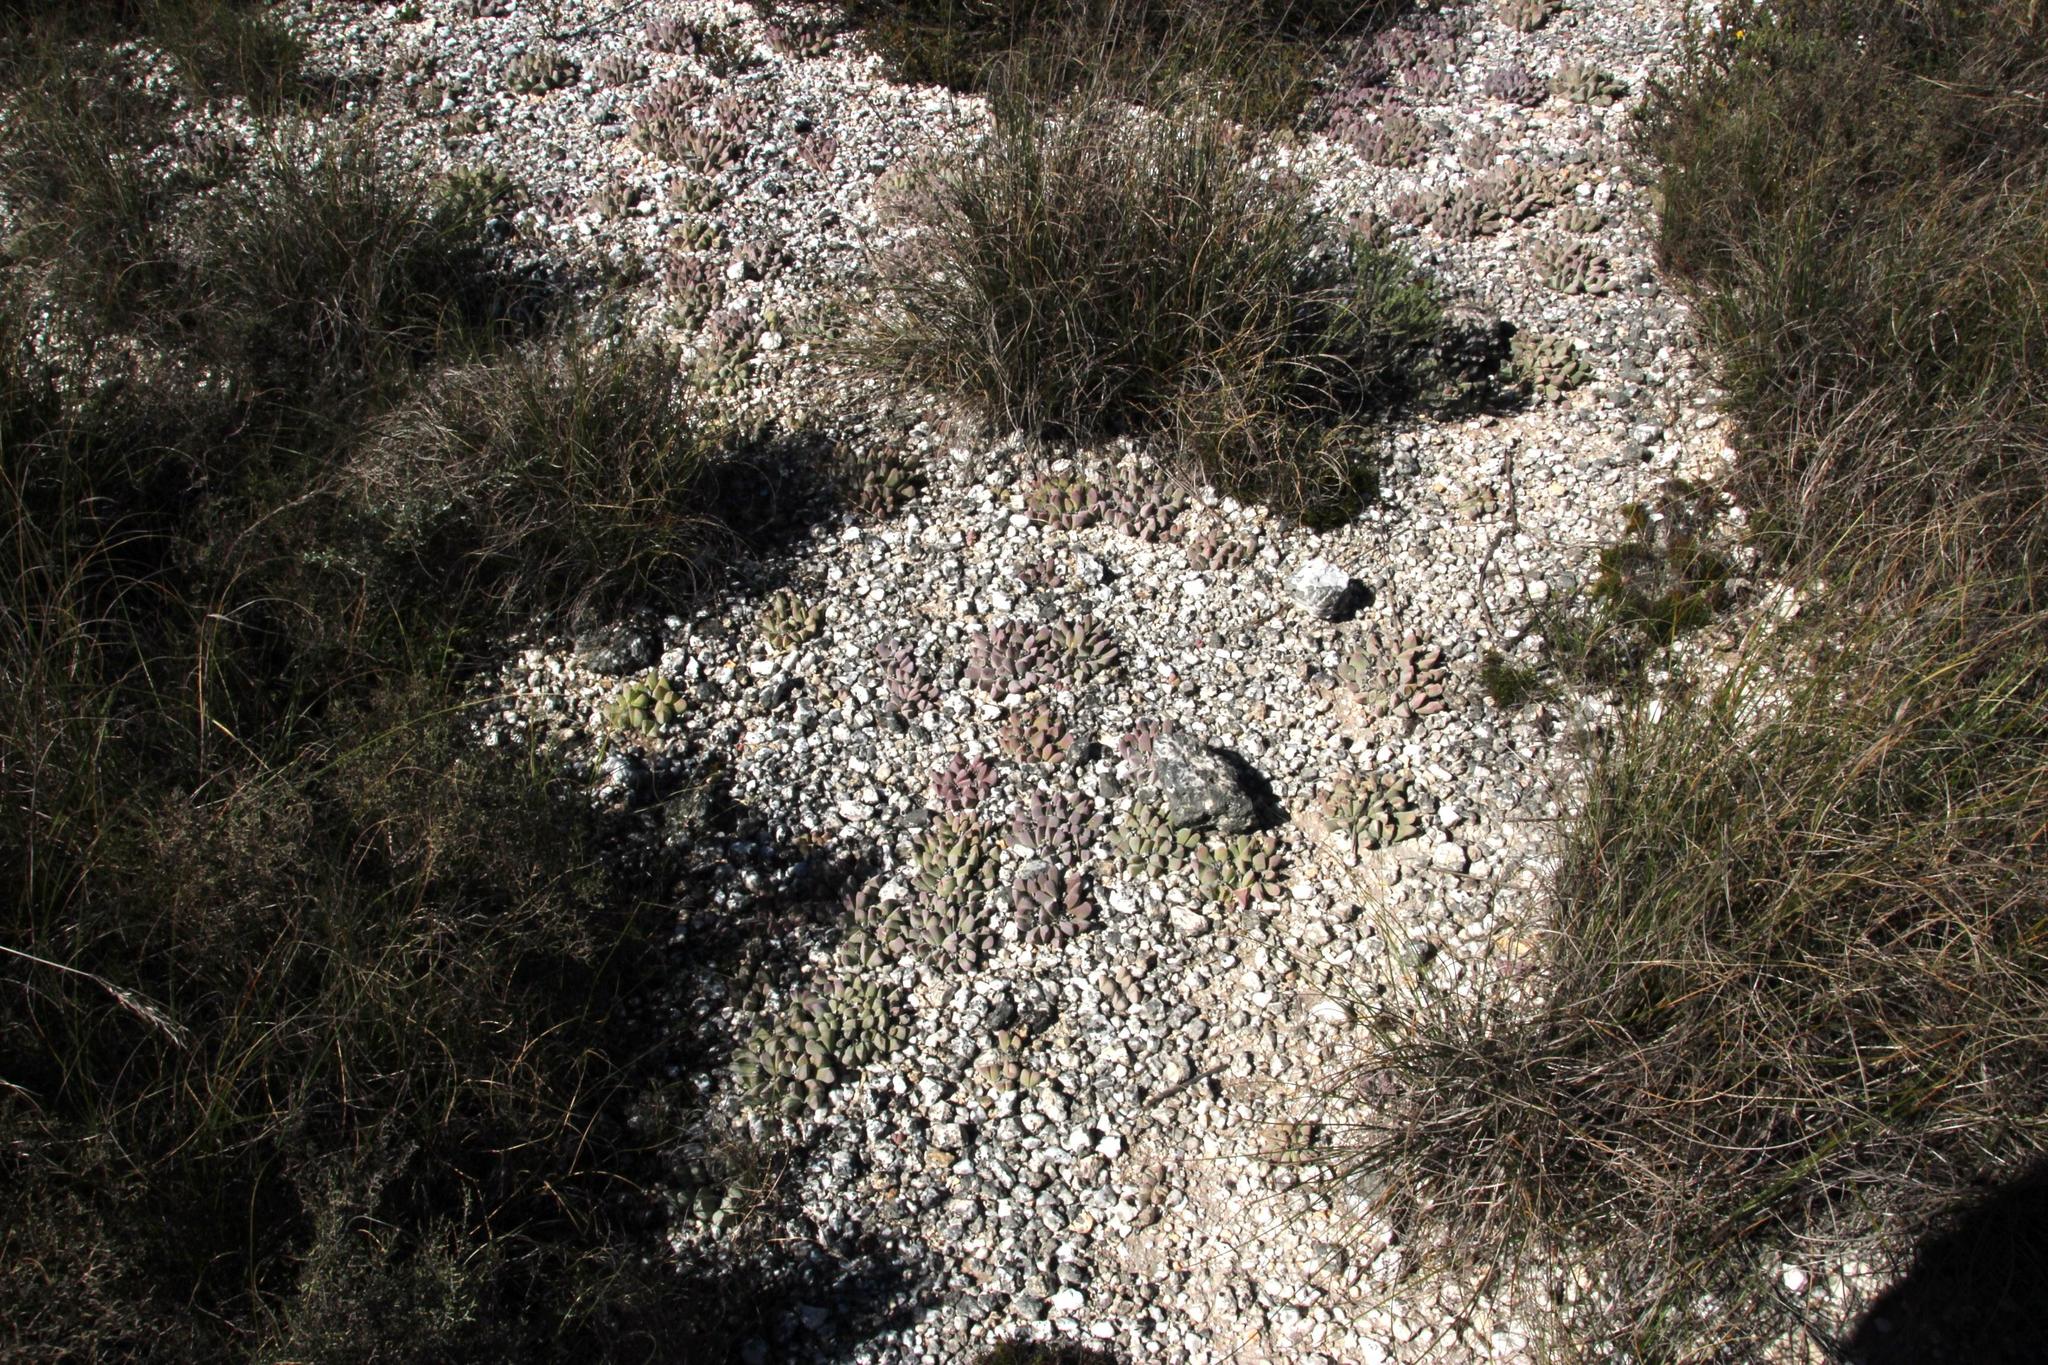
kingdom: Plantae
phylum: Tracheophyta
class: Magnoliopsida
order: Caryophyllales
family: Aizoaceae
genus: Gibbaeum
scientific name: Gibbaeum hartmannianum
